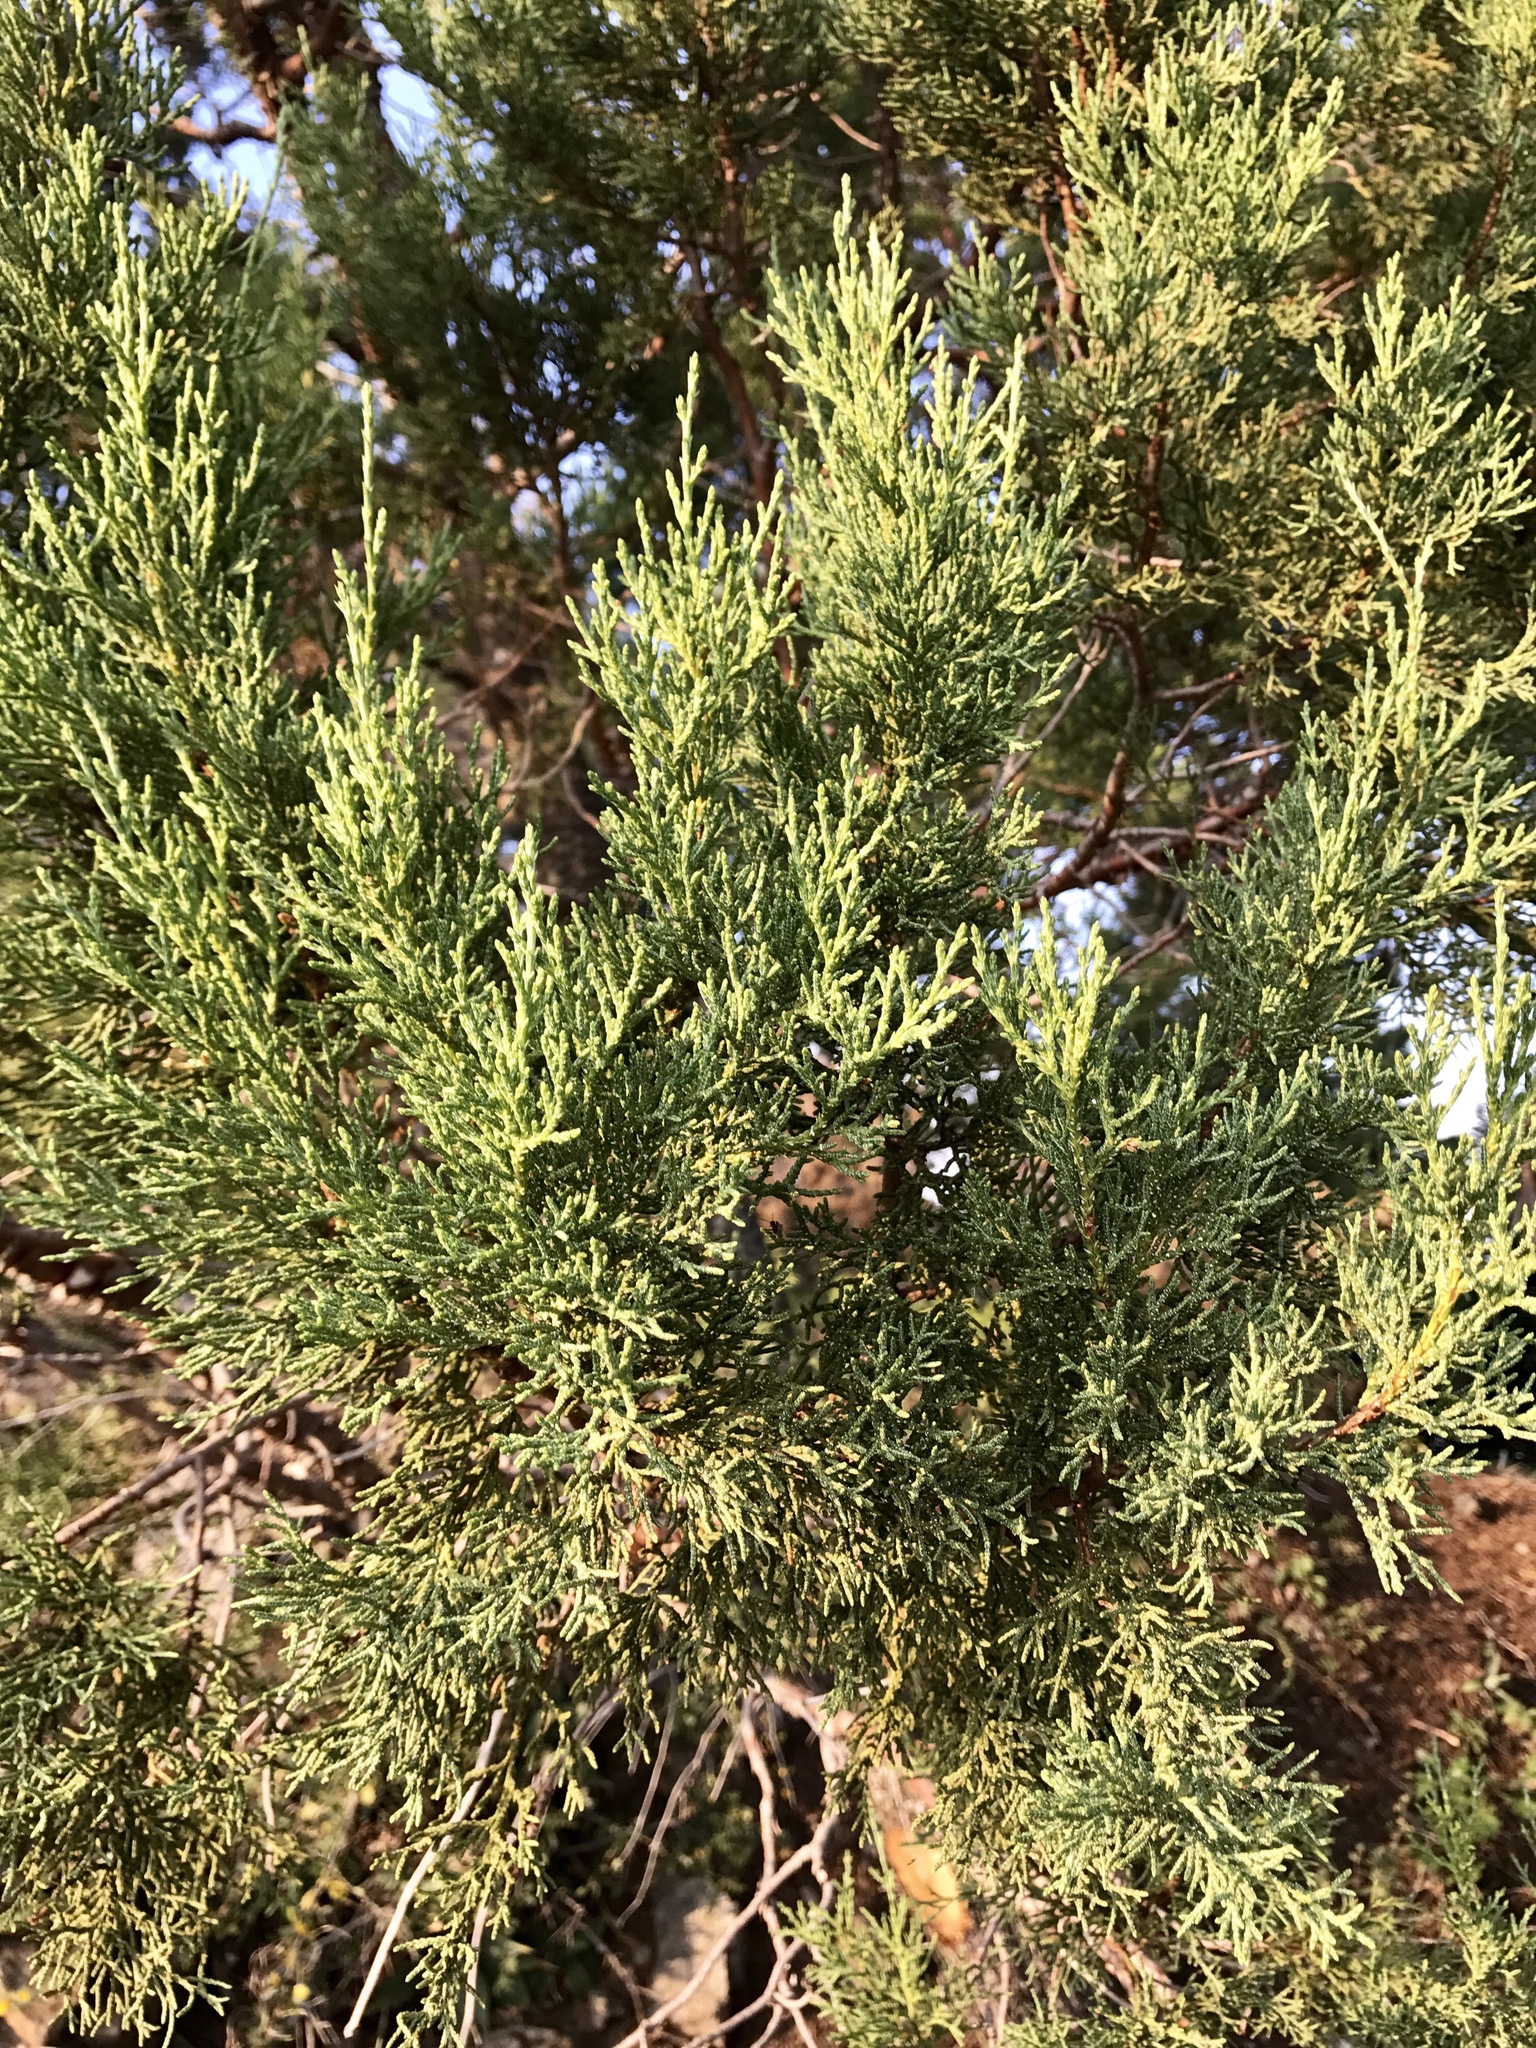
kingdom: Plantae
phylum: Tracheophyta
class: Pinopsida
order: Pinales
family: Cupressaceae
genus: Juniperus
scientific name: Juniperus deppeana
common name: Alligator juniper
